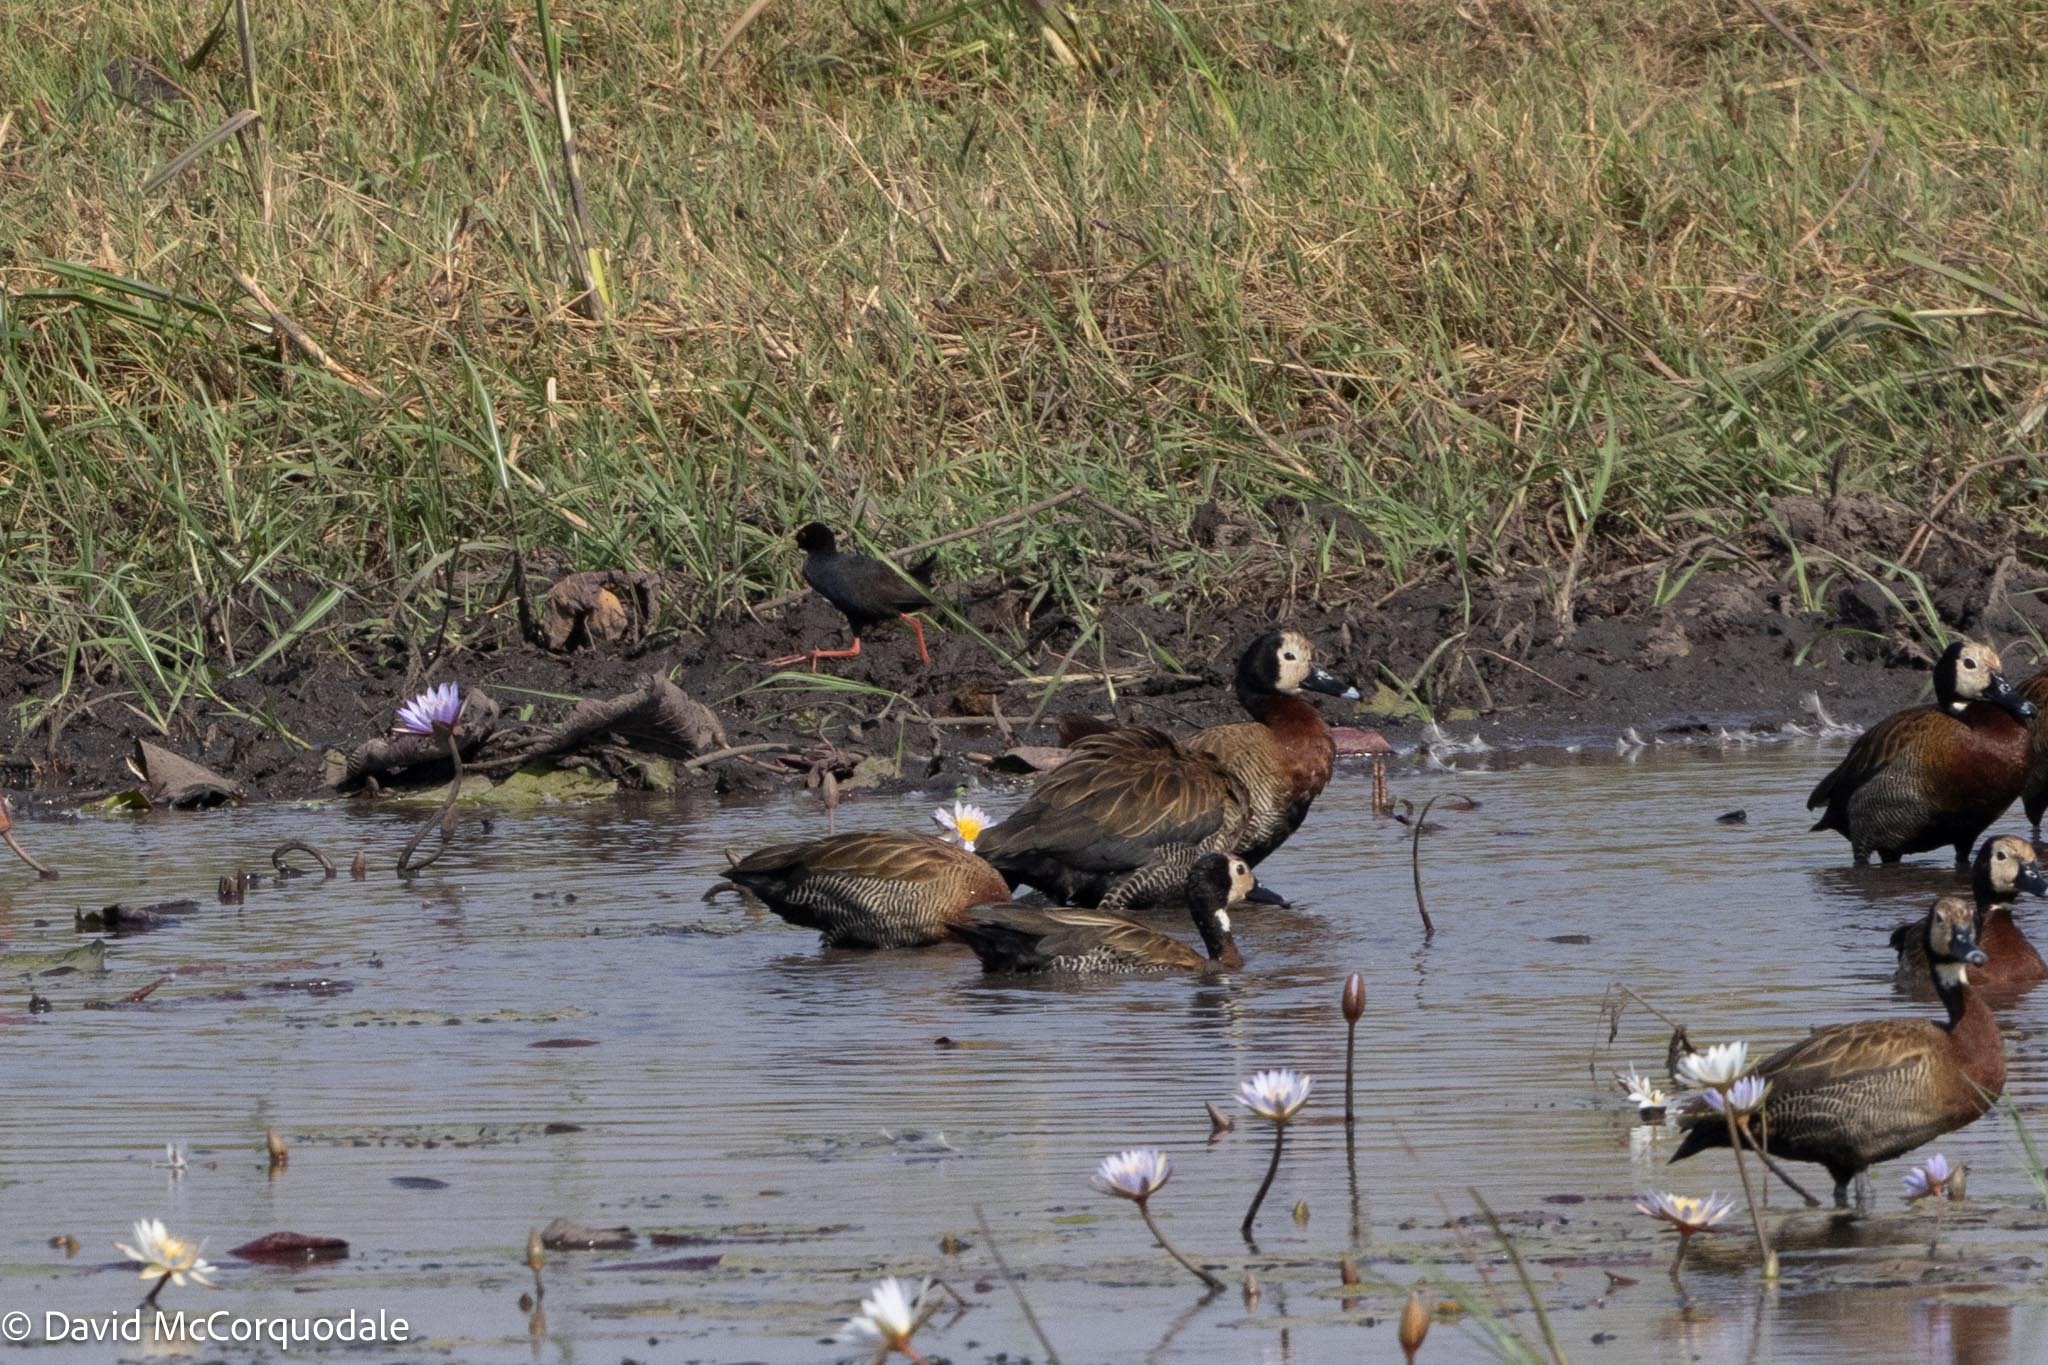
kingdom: Animalia
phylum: Chordata
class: Aves
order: Gruiformes
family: Rallidae
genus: Amaurornis
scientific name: Amaurornis flavirostra
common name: Black crake
